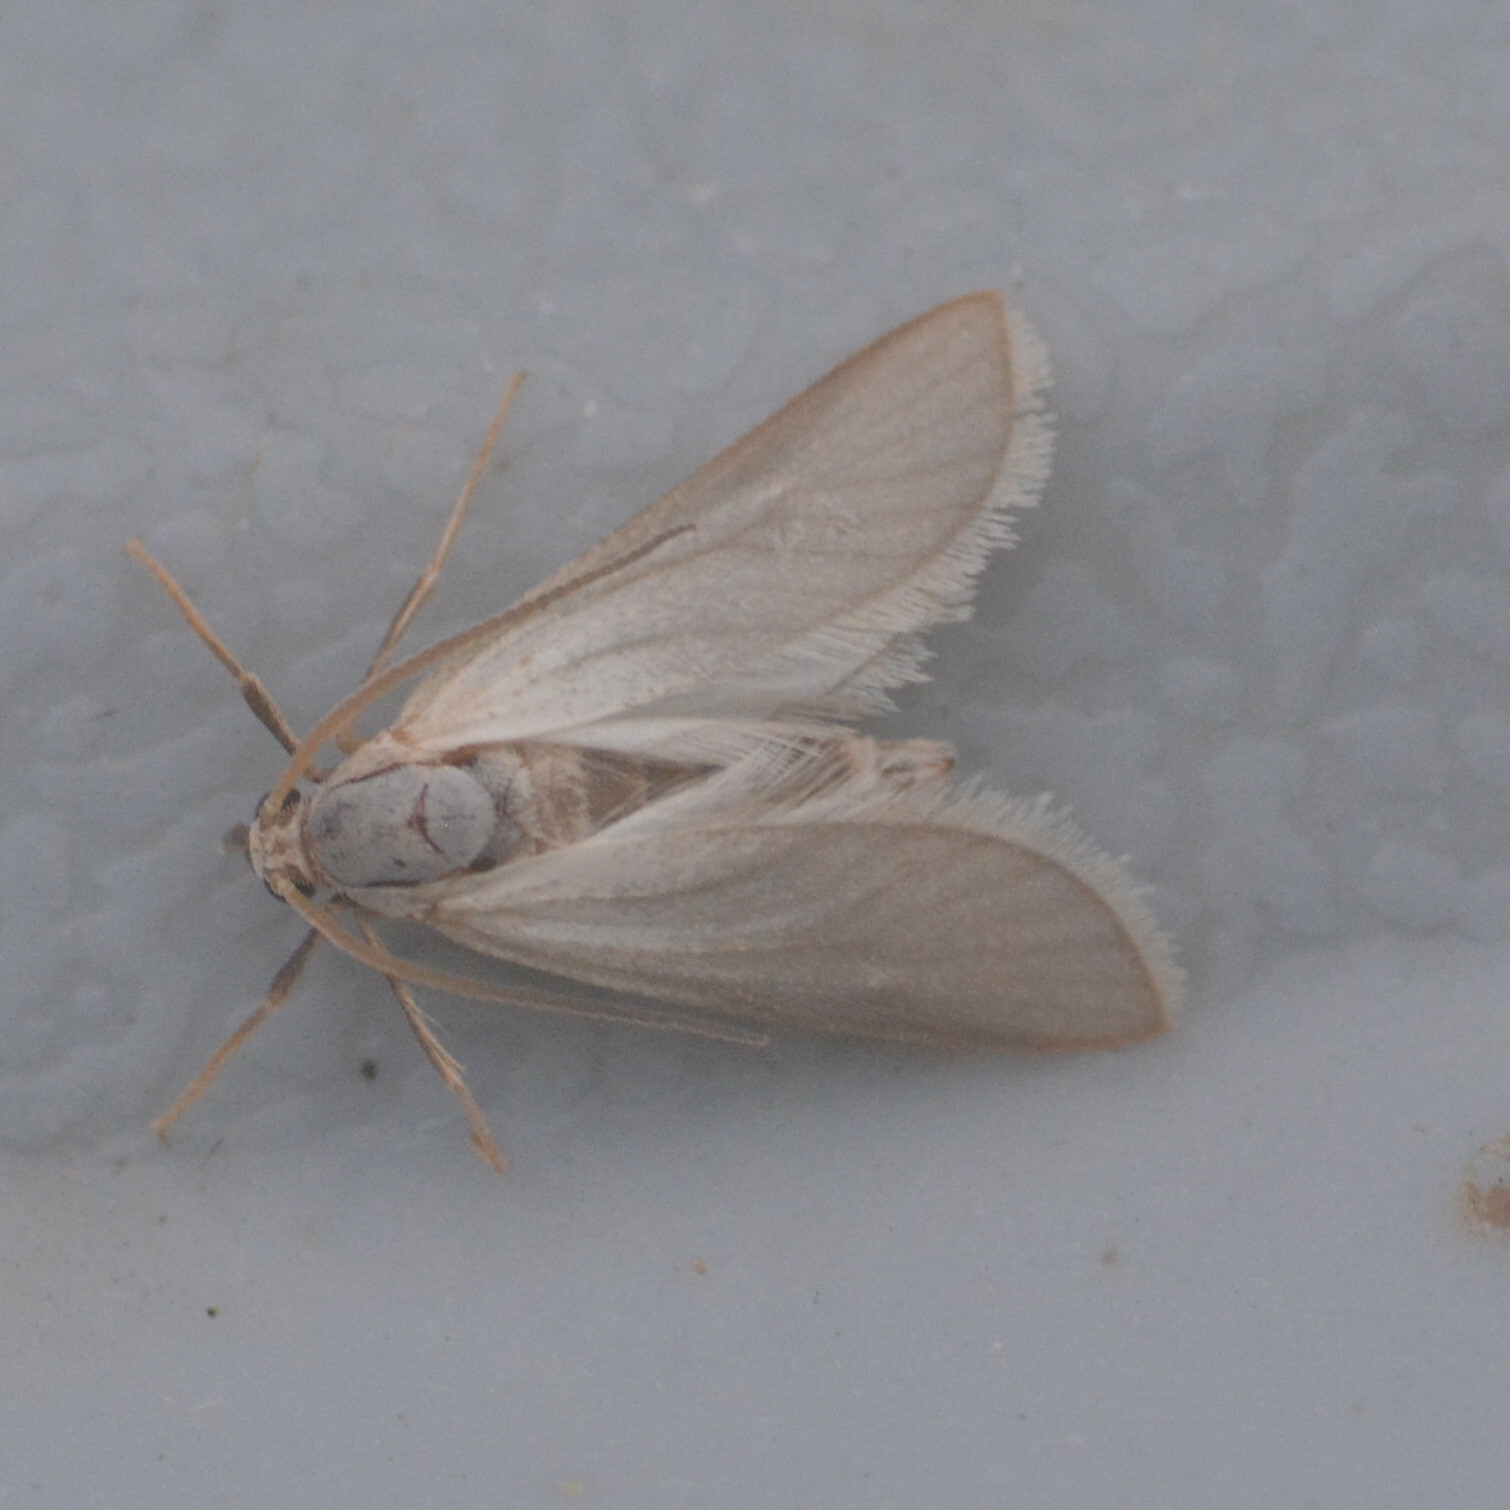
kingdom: Animalia
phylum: Arthropoda
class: Insecta
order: Lepidoptera
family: Crambidae
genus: Acentria
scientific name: Acentria ephemerella
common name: European water moth
